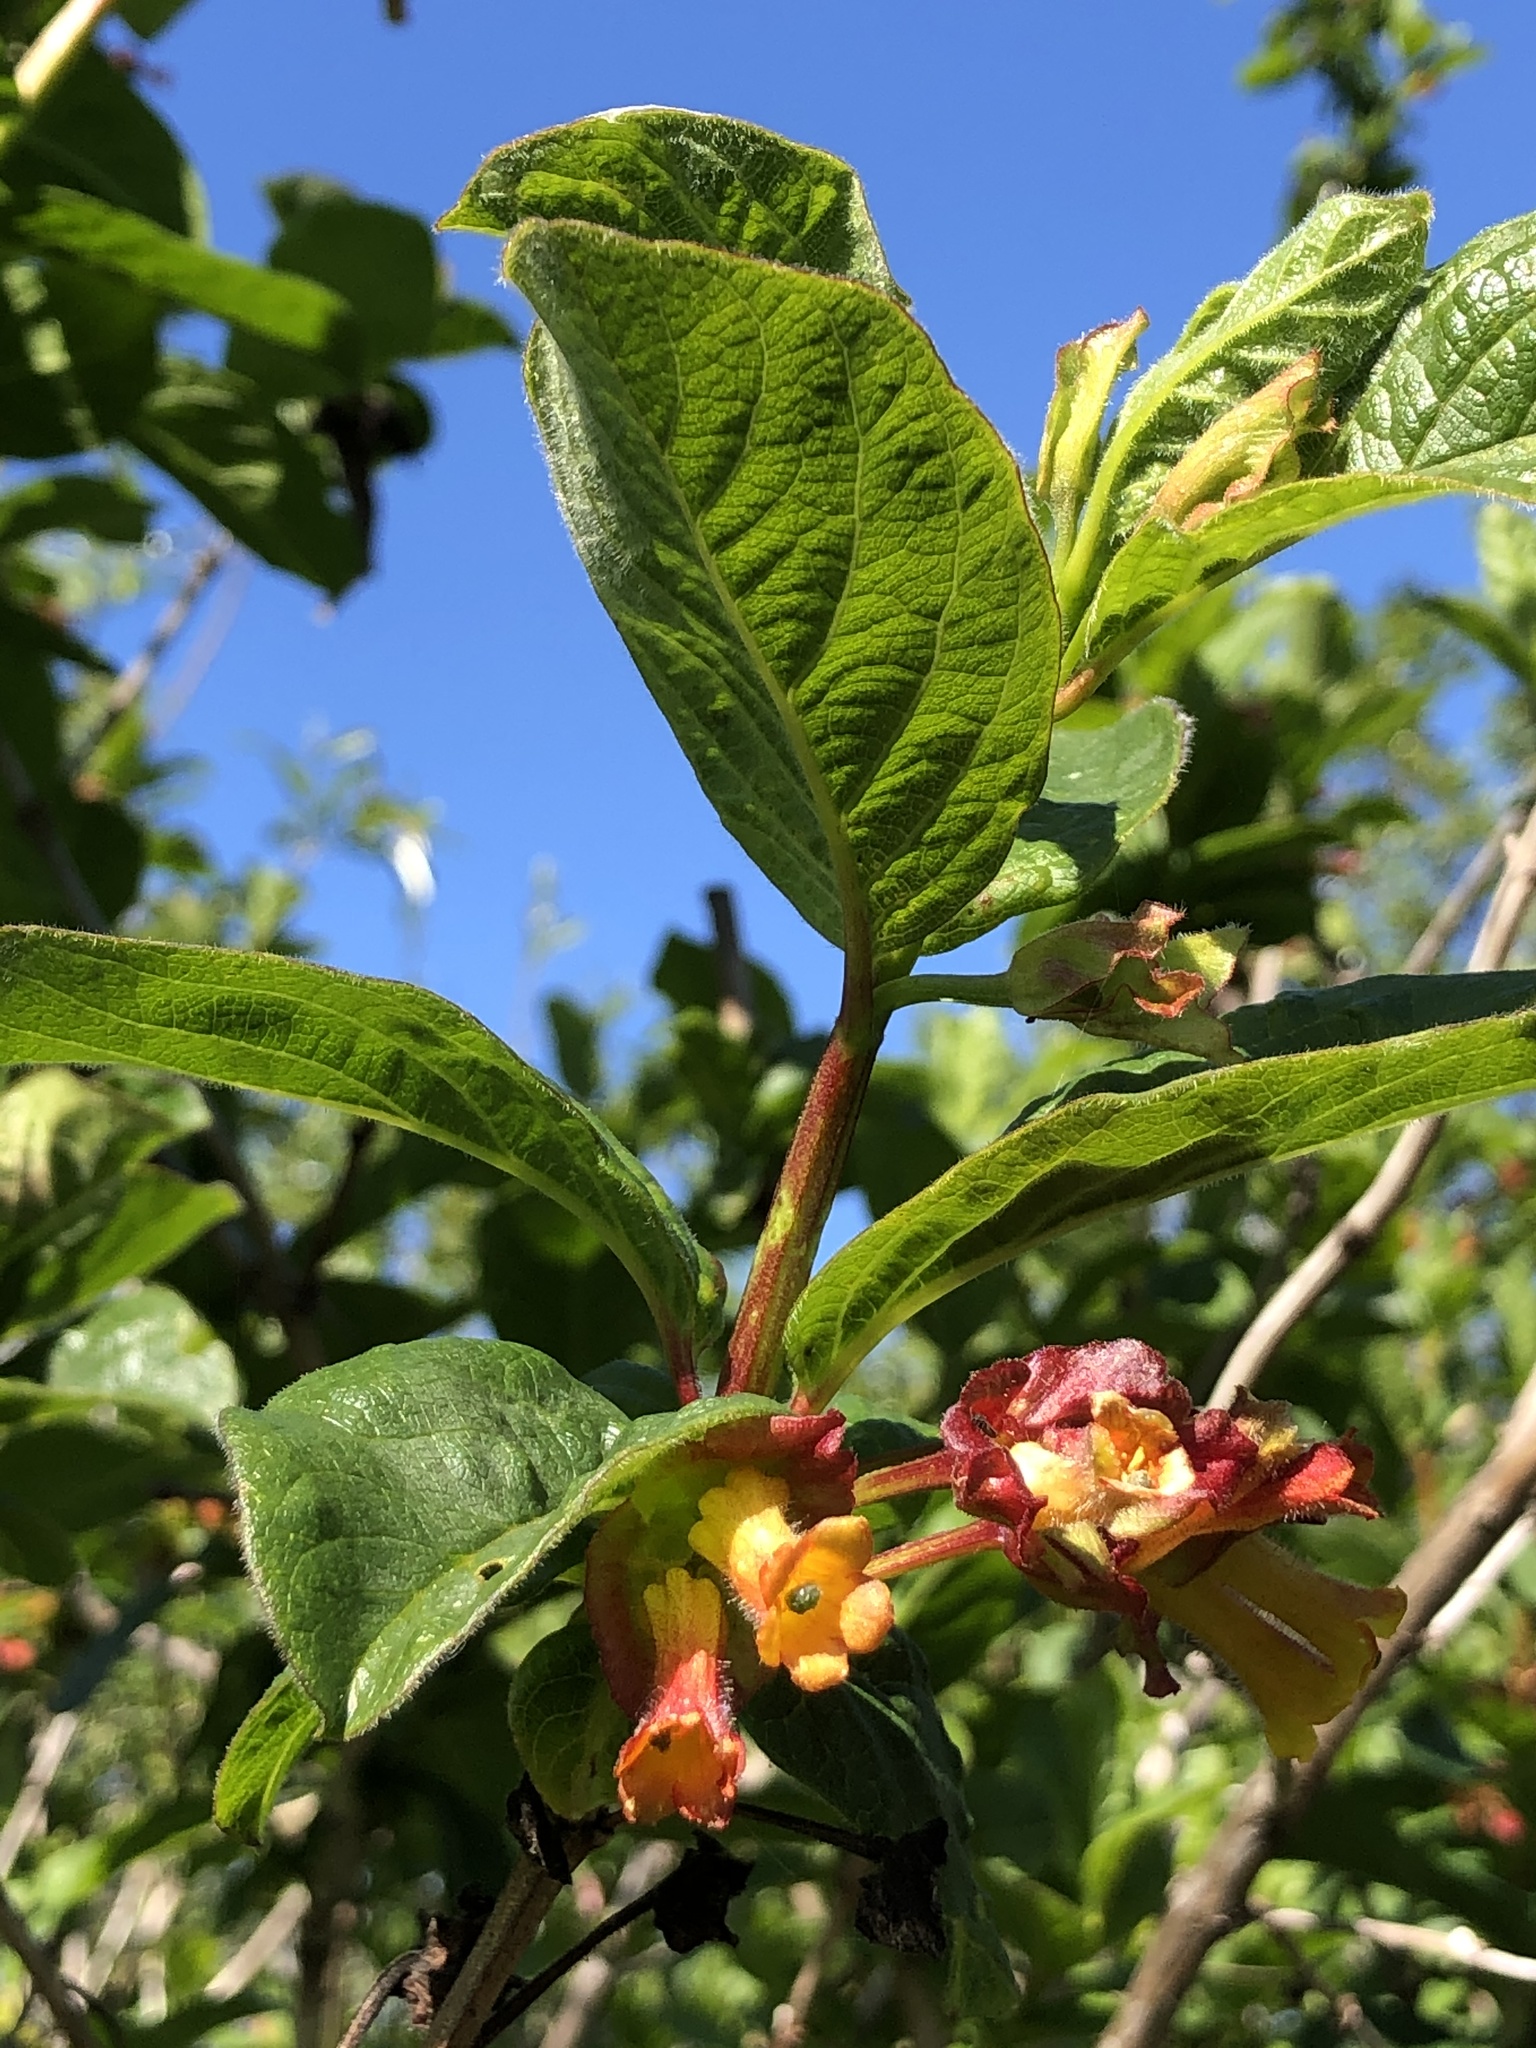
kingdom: Plantae
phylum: Tracheophyta
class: Magnoliopsida
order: Dipsacales
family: Caprifoliaceae
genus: Lonicera
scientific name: Lonicera involucrata
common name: Californian honeysuckle
